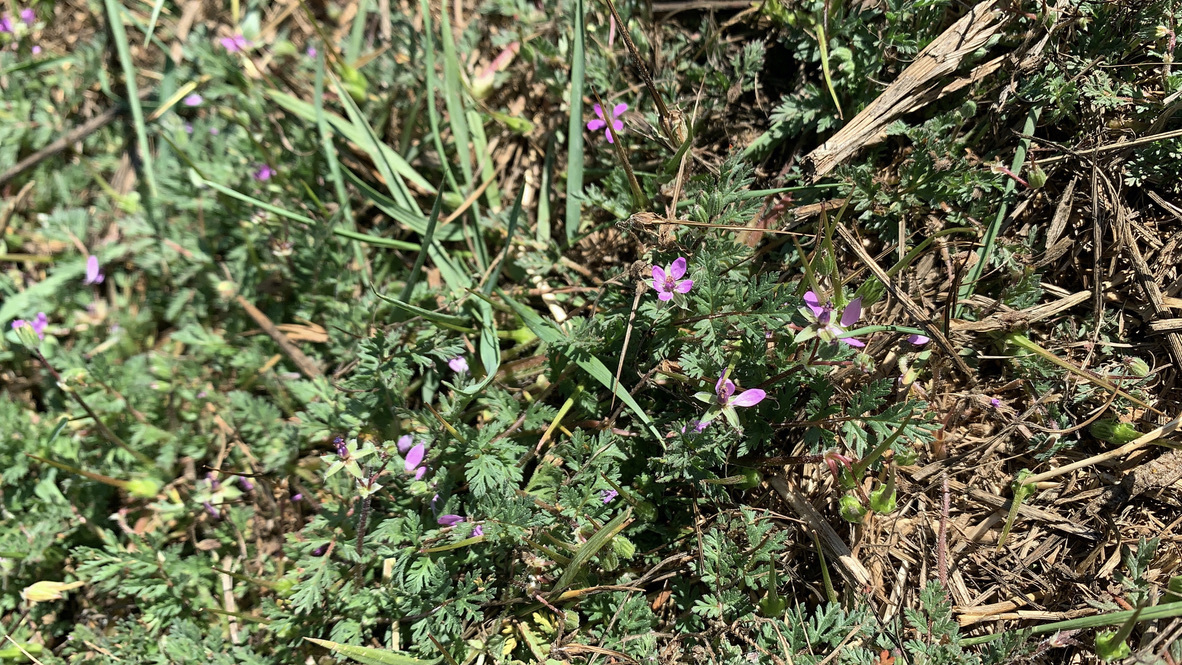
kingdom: Plantae
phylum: Tracheophyta
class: Magnoliopsida
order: Geraniales
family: Geraniaceae
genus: Erodium
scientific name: Erodium cicutarium
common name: Common stork's-bill
